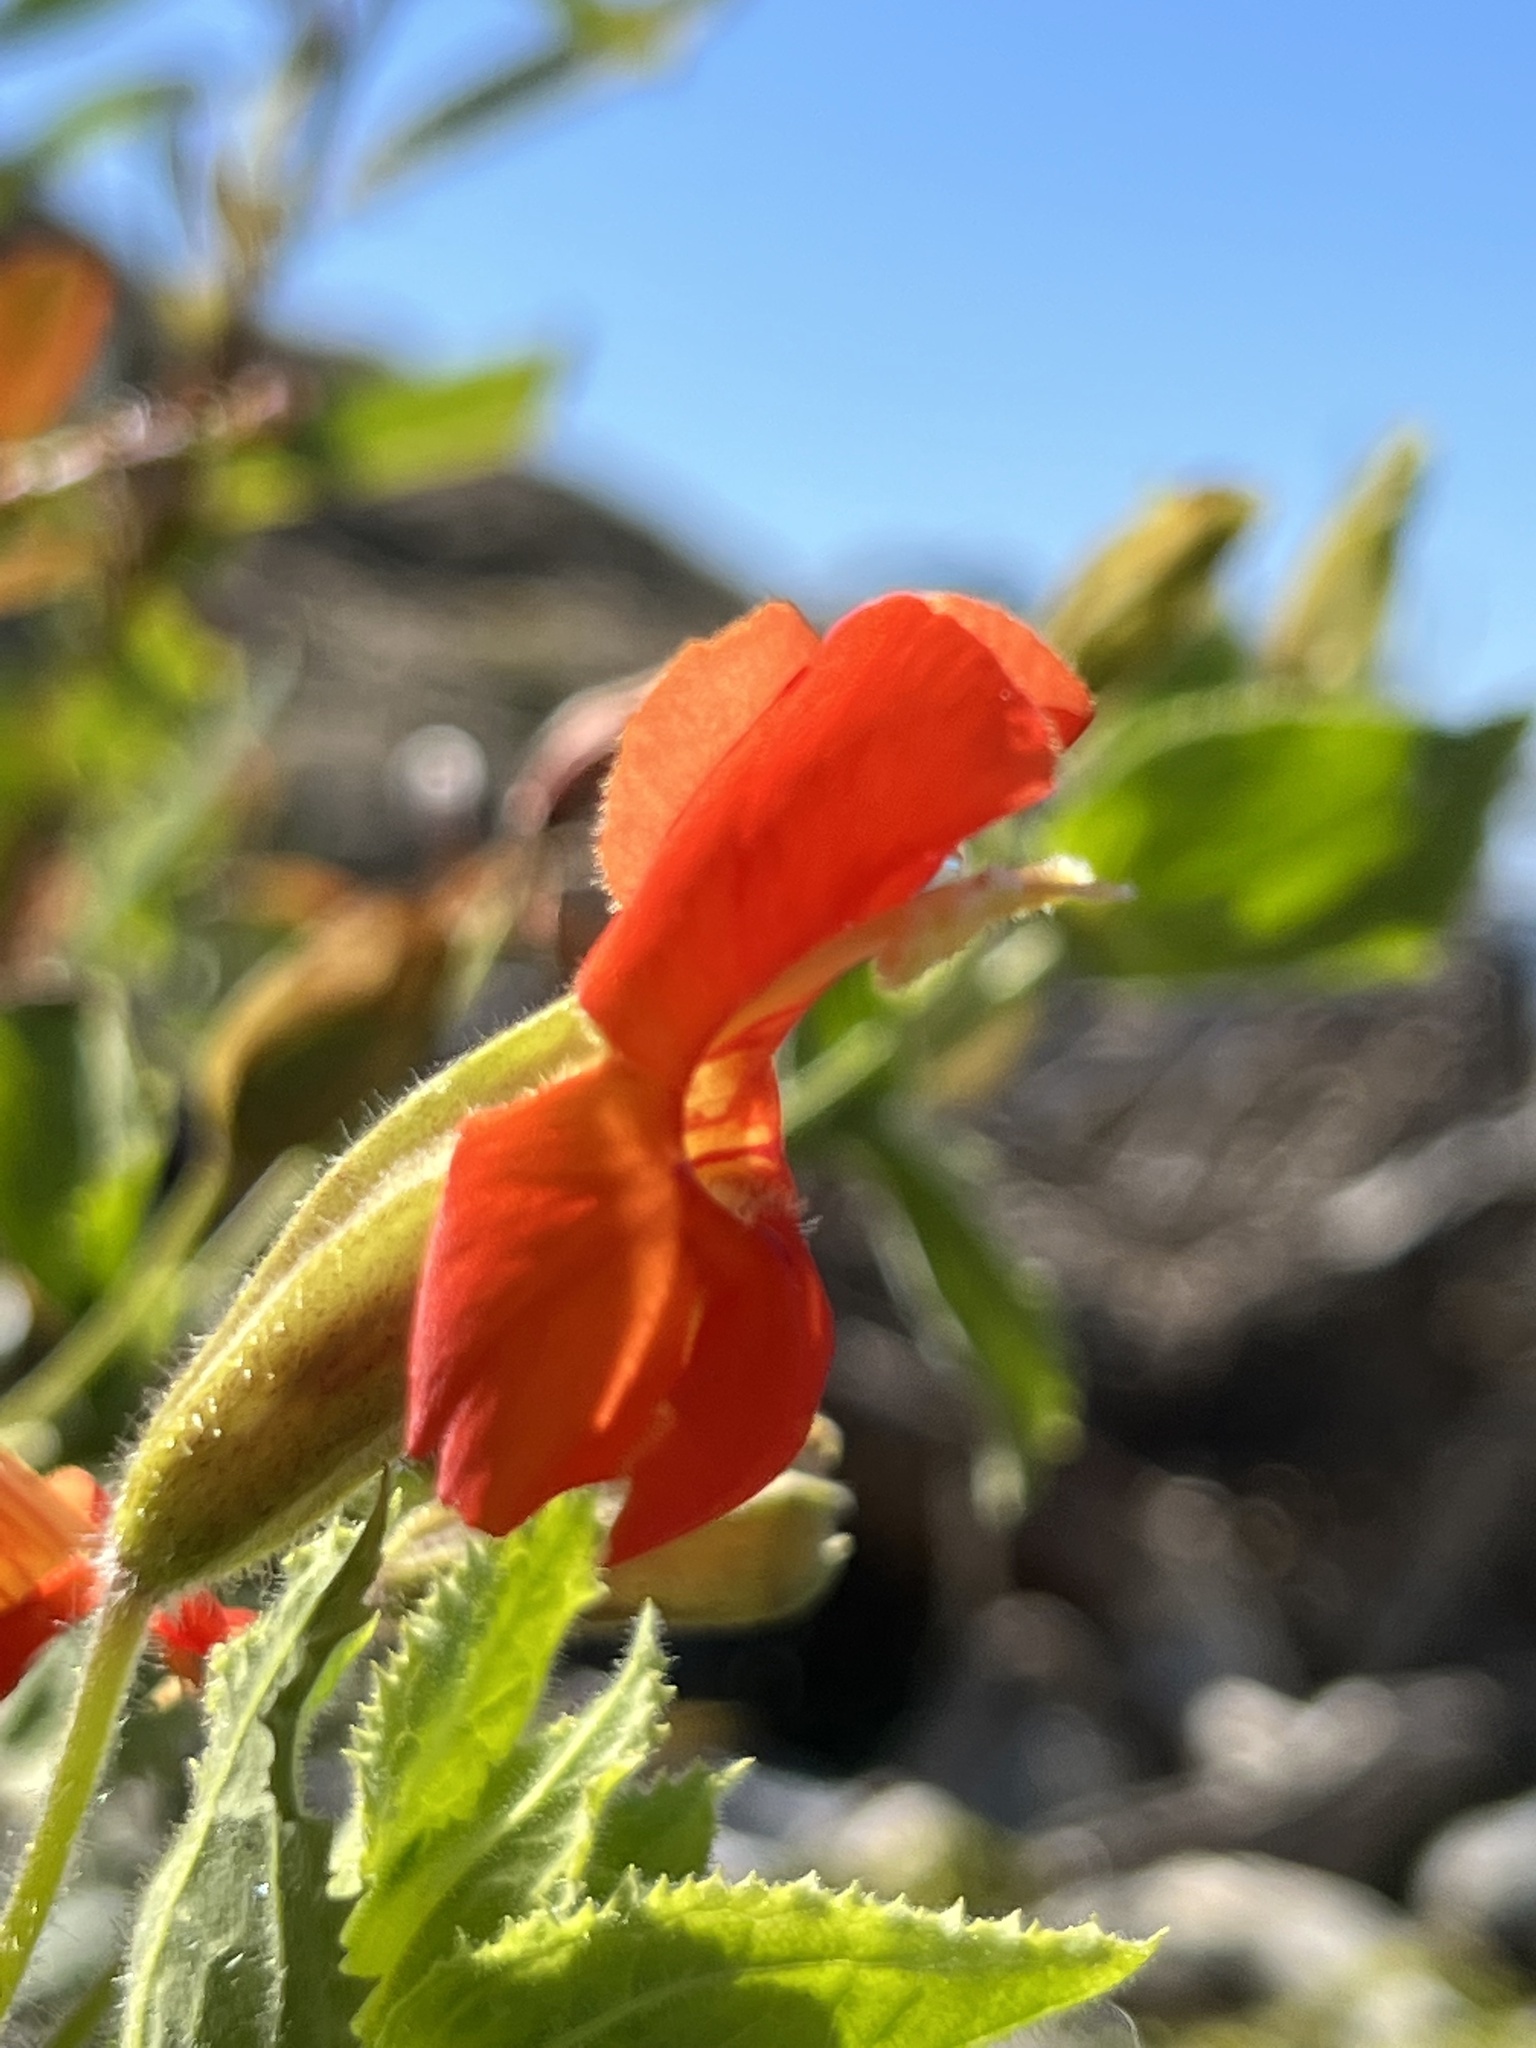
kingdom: Plantae
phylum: Tracheophyta
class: Magnoliopsida
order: Lamiales
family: Phrymaceae
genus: Erythranthe
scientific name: Erythranthe cardinalis
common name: Scarlet monkey-flower
